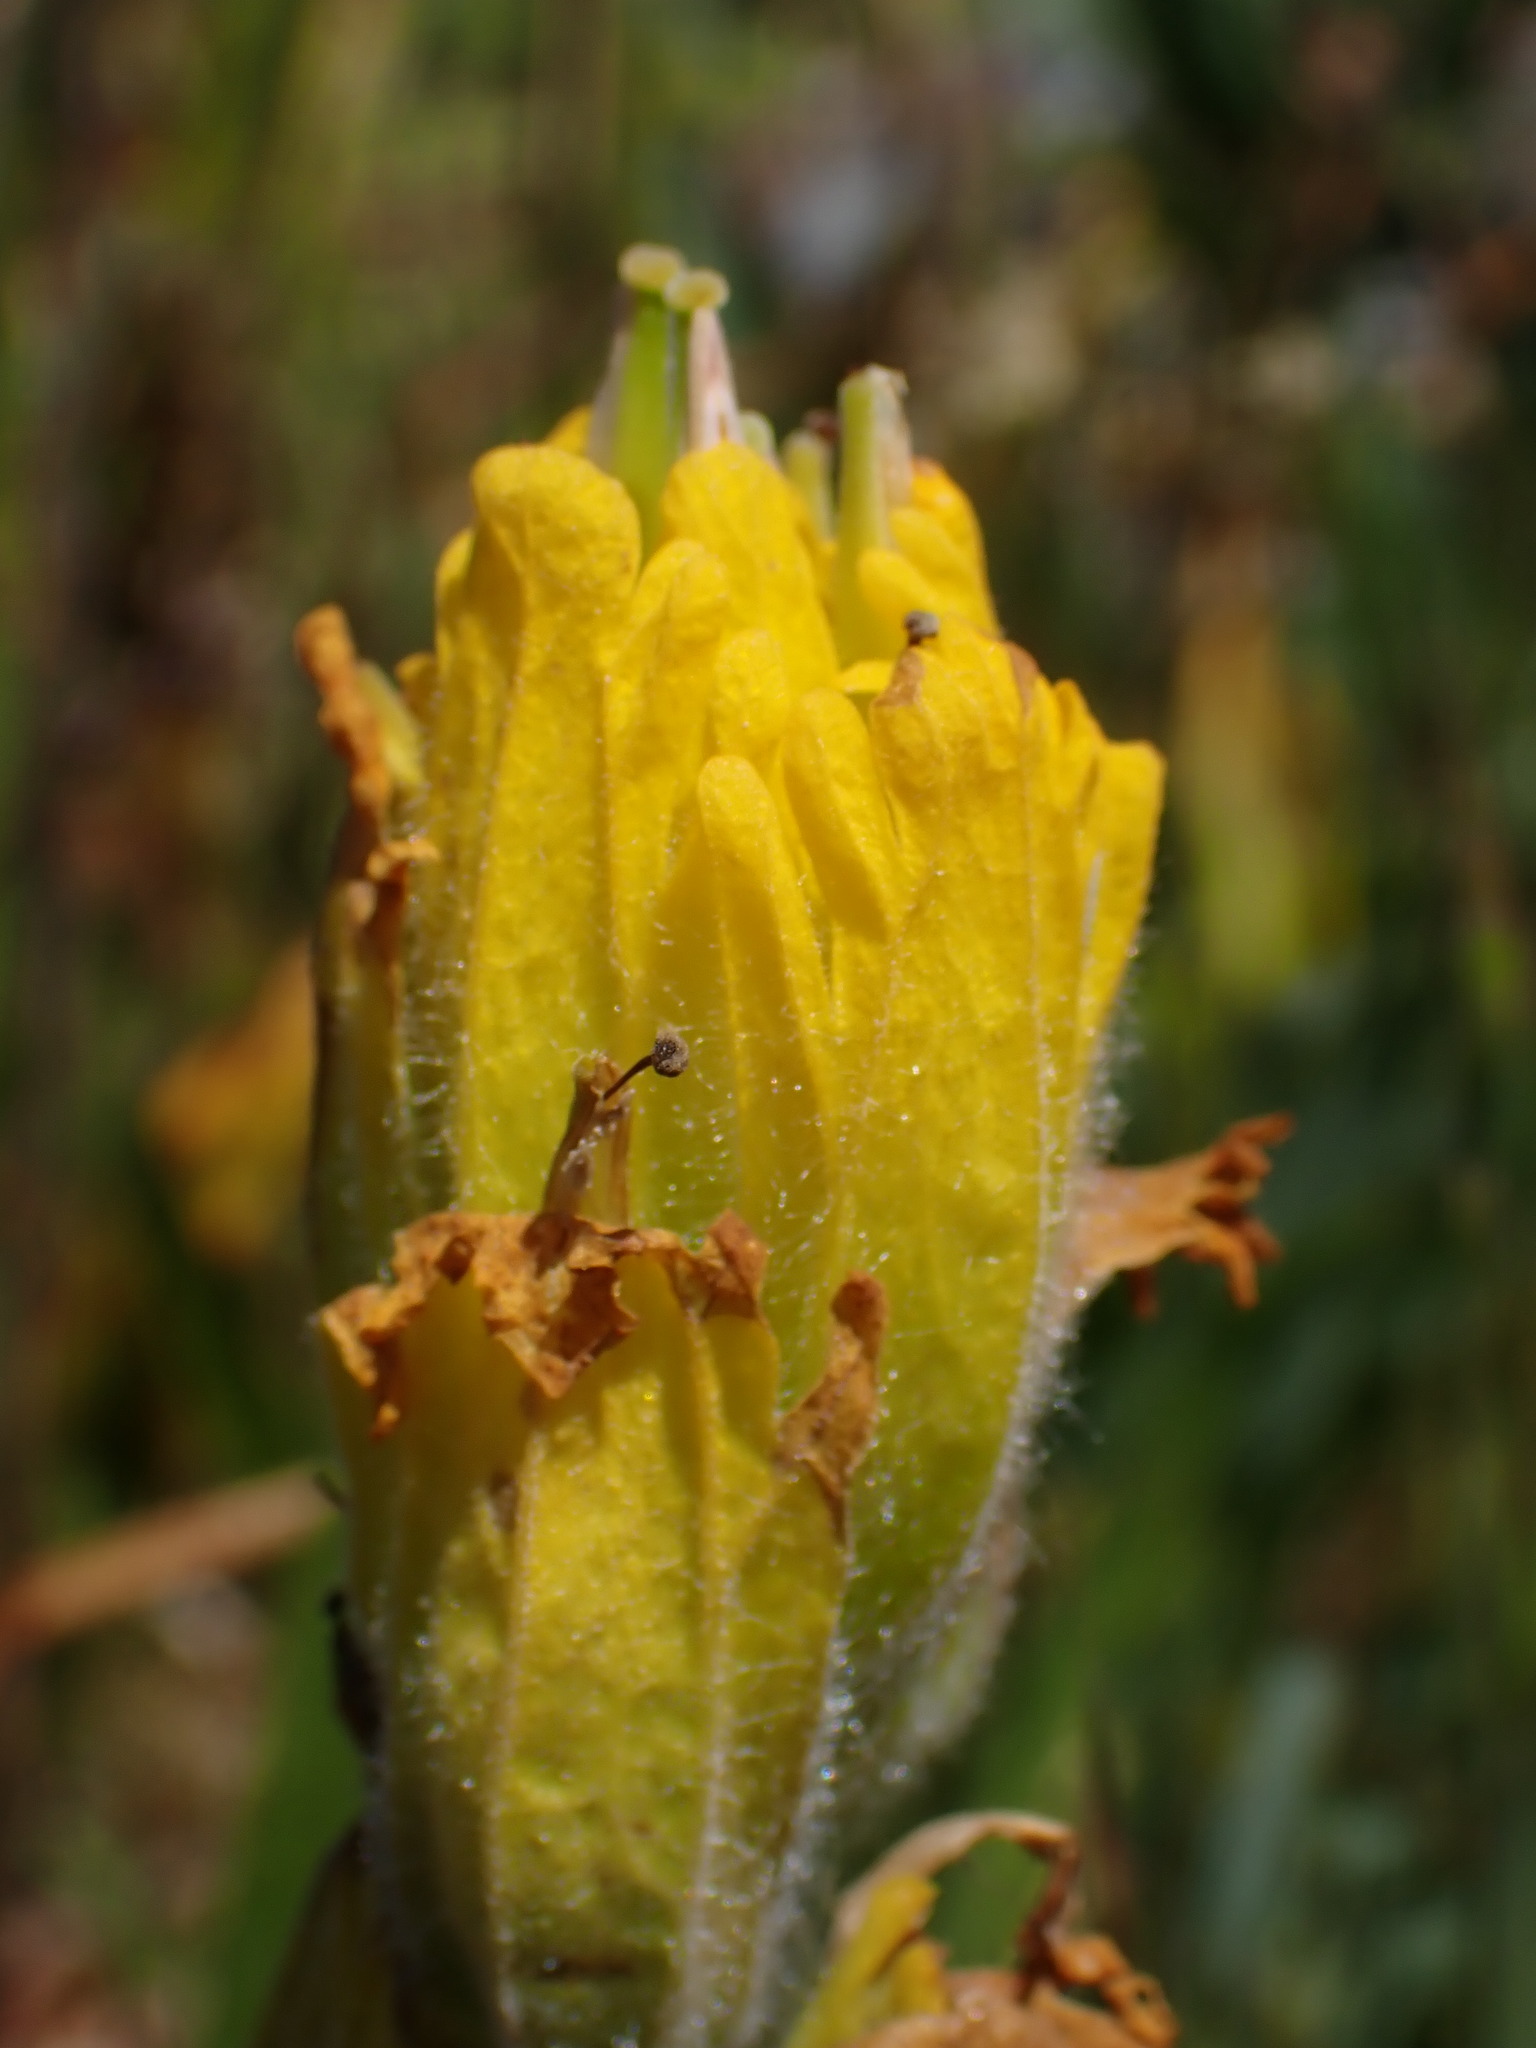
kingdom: Plantae
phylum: Tracheophyta
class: Magnoliopsida
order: Lamiales
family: Orobanchaceae
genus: Castilleja
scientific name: Castilleja levisecta
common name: Golden paintbrush
